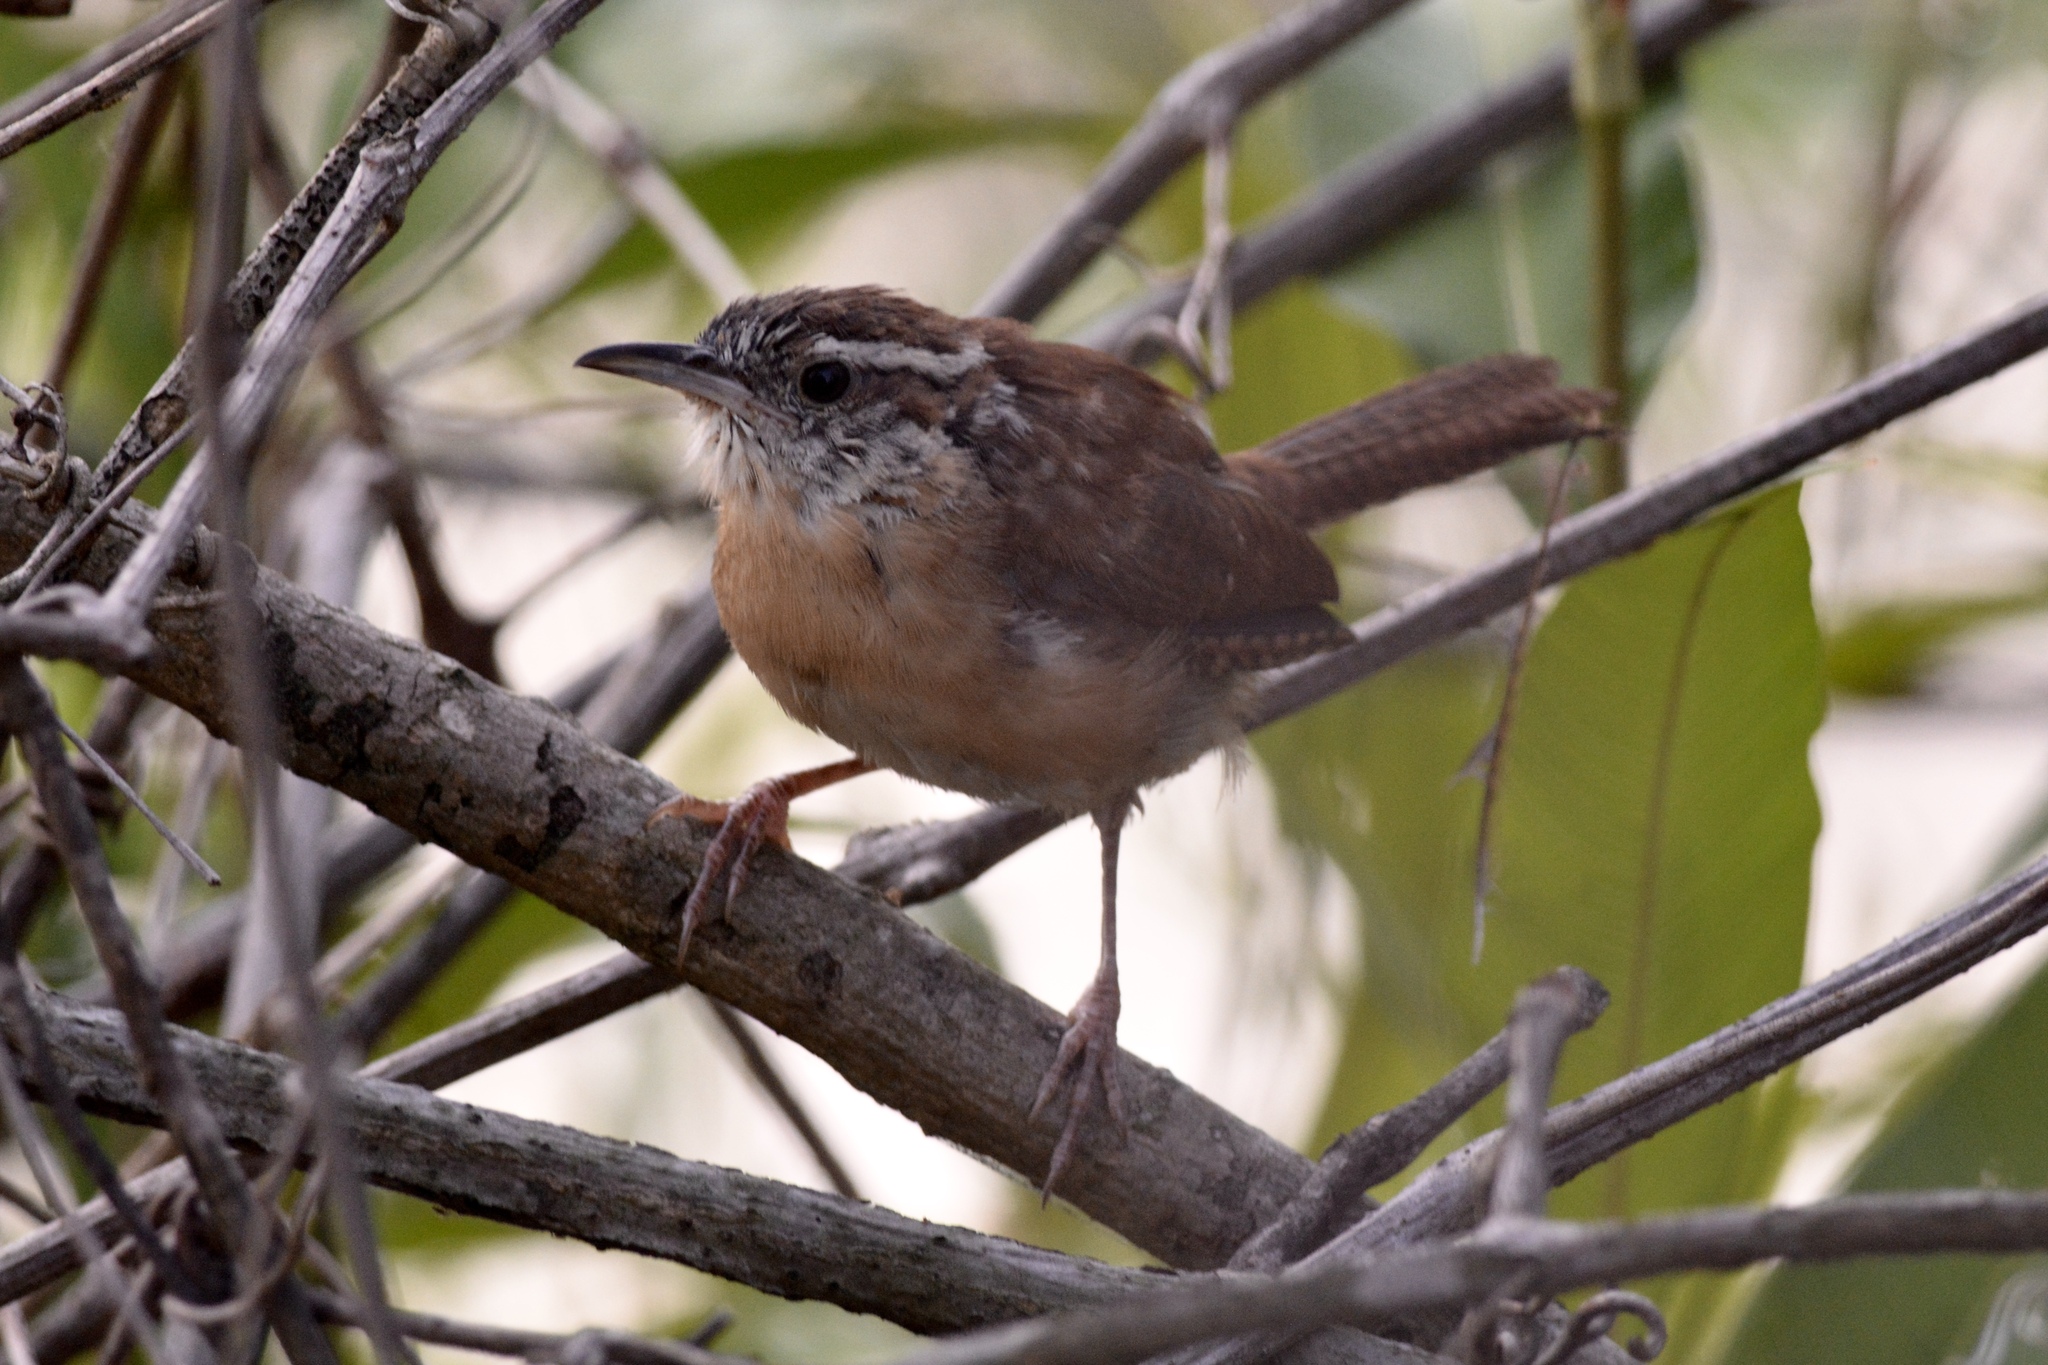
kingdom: Animalia
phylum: Chordata
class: Aves
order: Passeriformes
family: Troglodytidae
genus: Thryothorus
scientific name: Thryothorus ludovicianus
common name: Carolina wren
